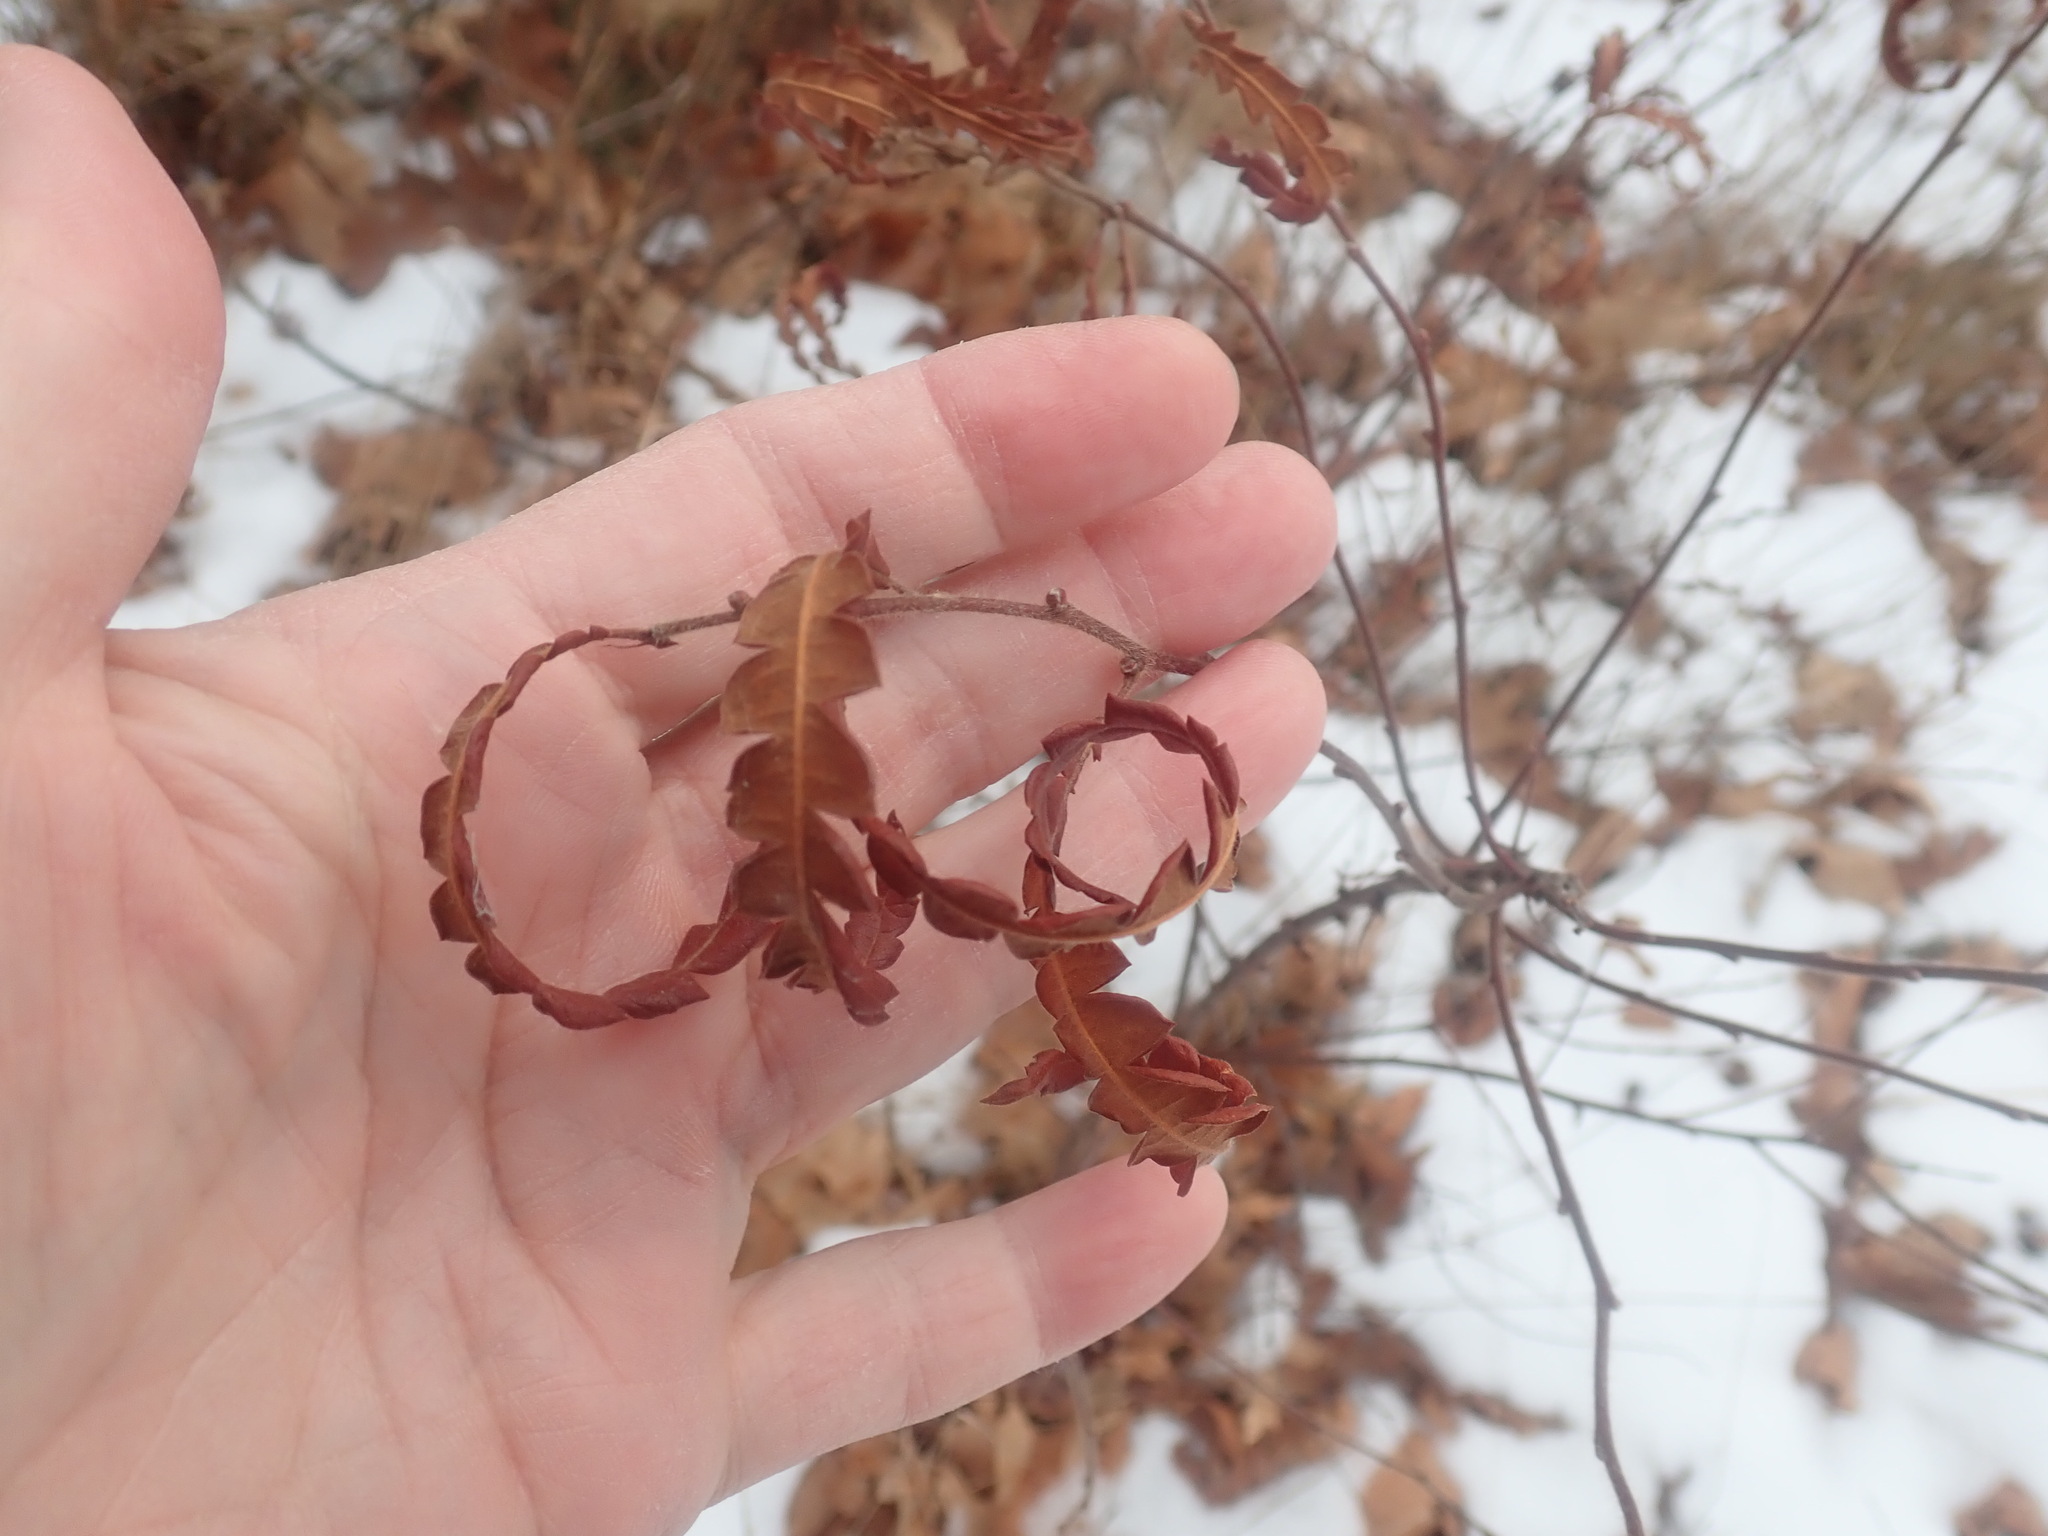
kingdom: Plantae
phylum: Tracheophyta
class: Magnoliopsida
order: Fagales
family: Myricaceae
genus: Comptonia
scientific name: Comptonia peregrina
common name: Sweet-fern
